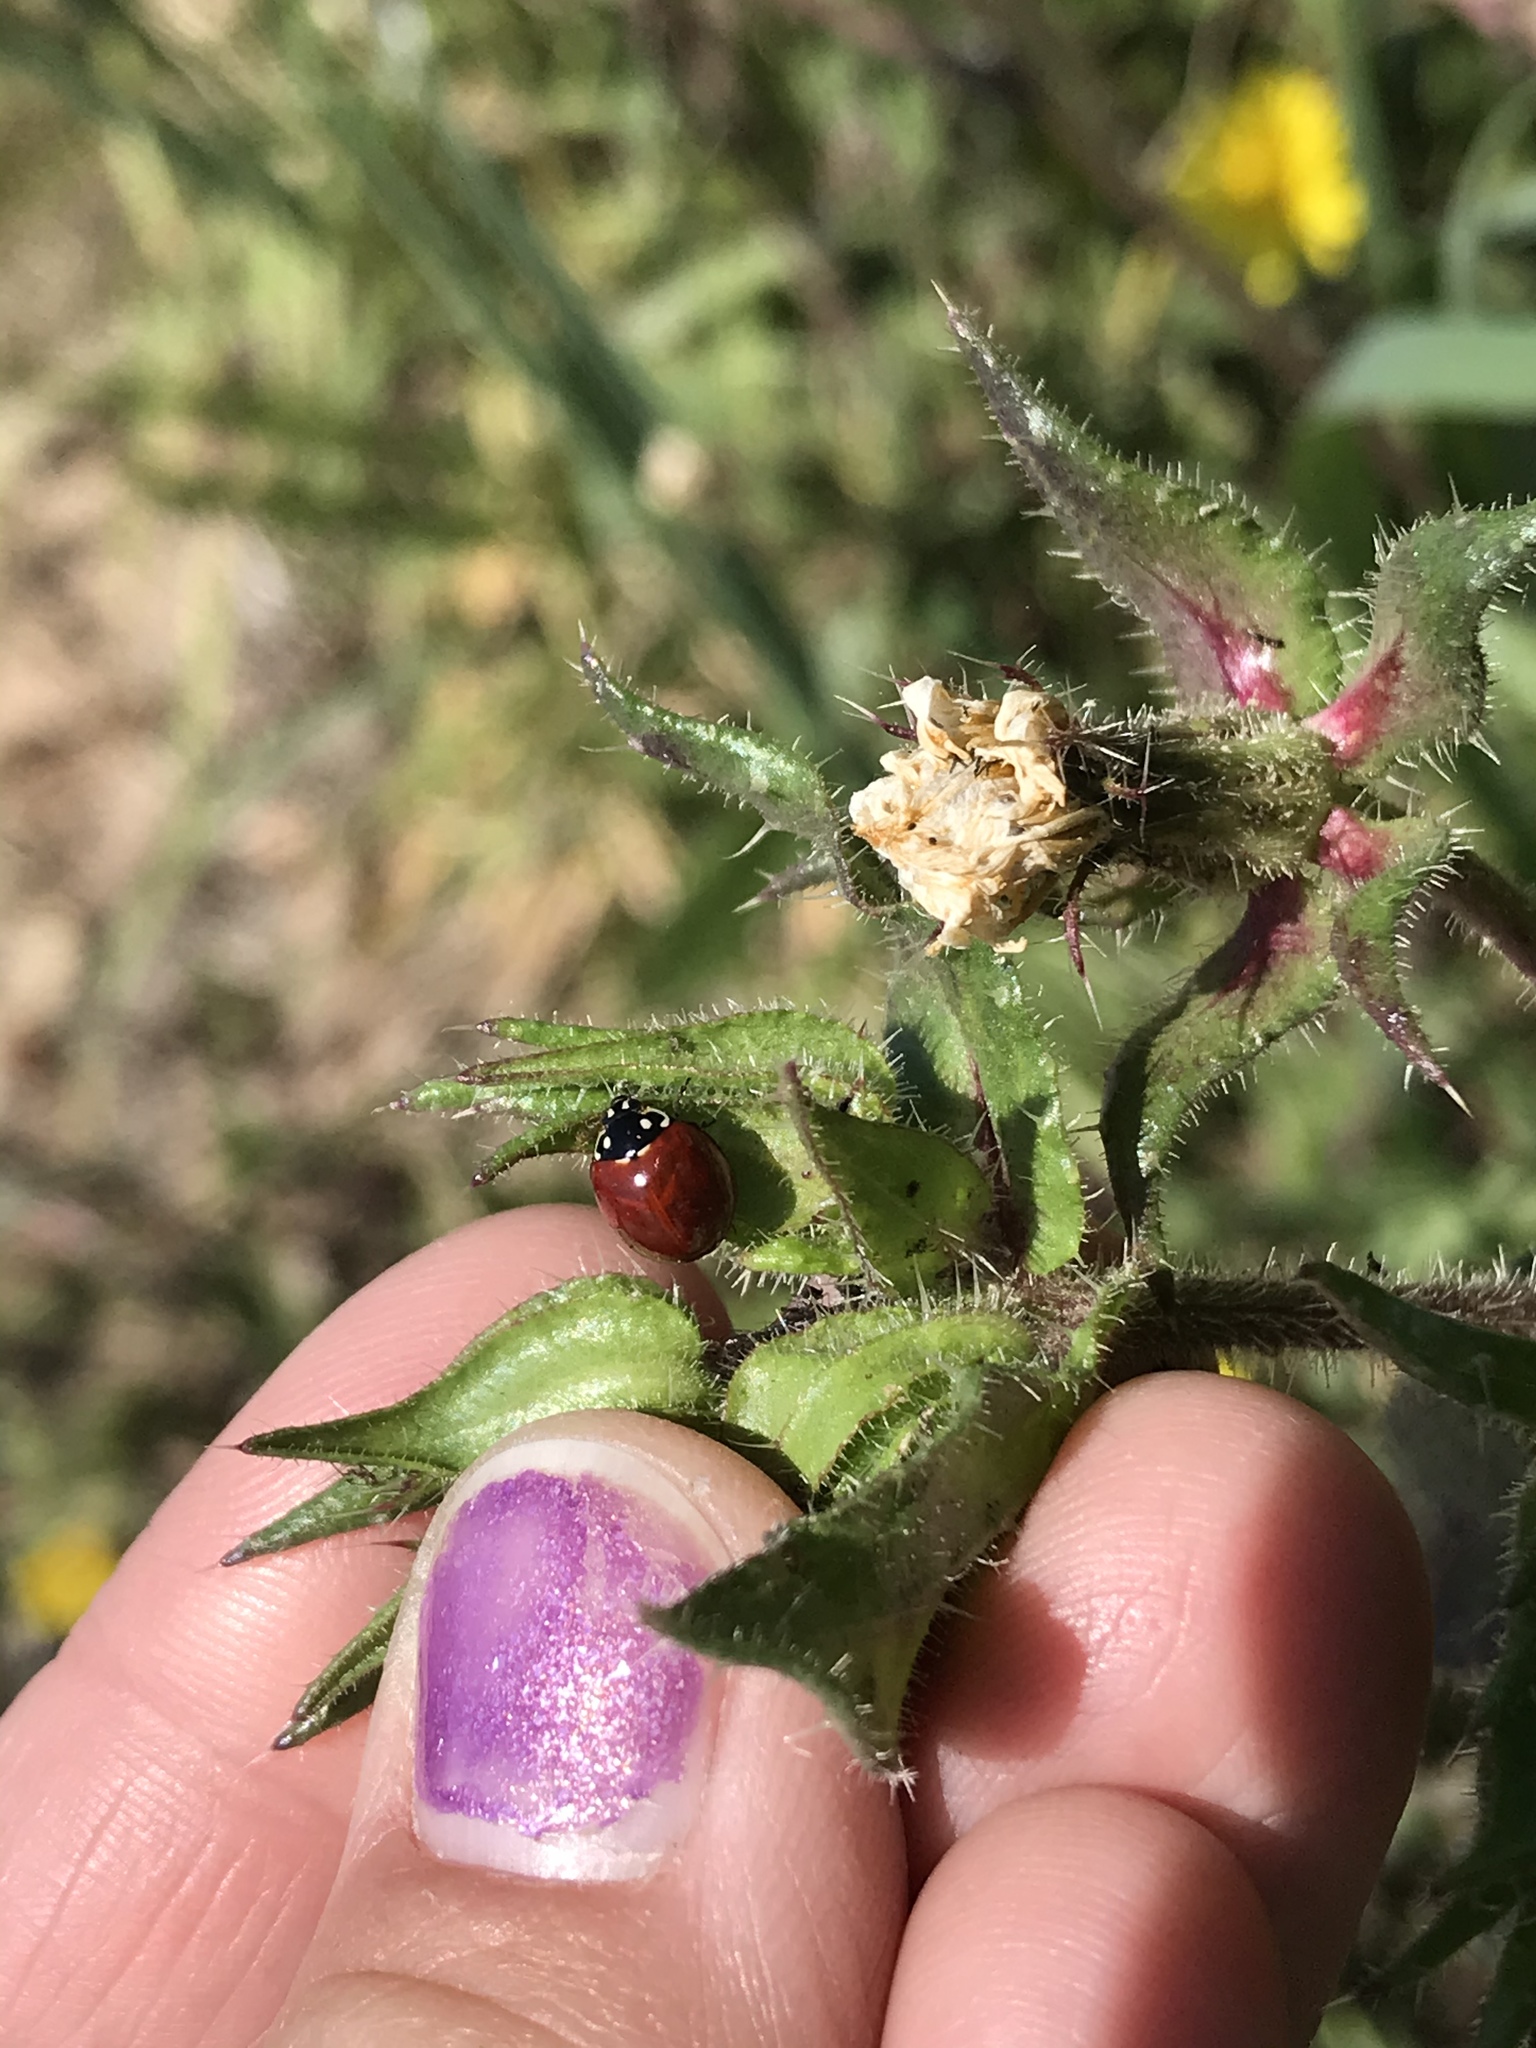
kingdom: Animalia
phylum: Arthropoda
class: Insecta
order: Coleoptera
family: Coccinellidae
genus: Cycloneda
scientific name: Cycloneda sanguinea
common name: Ladybird beetle
